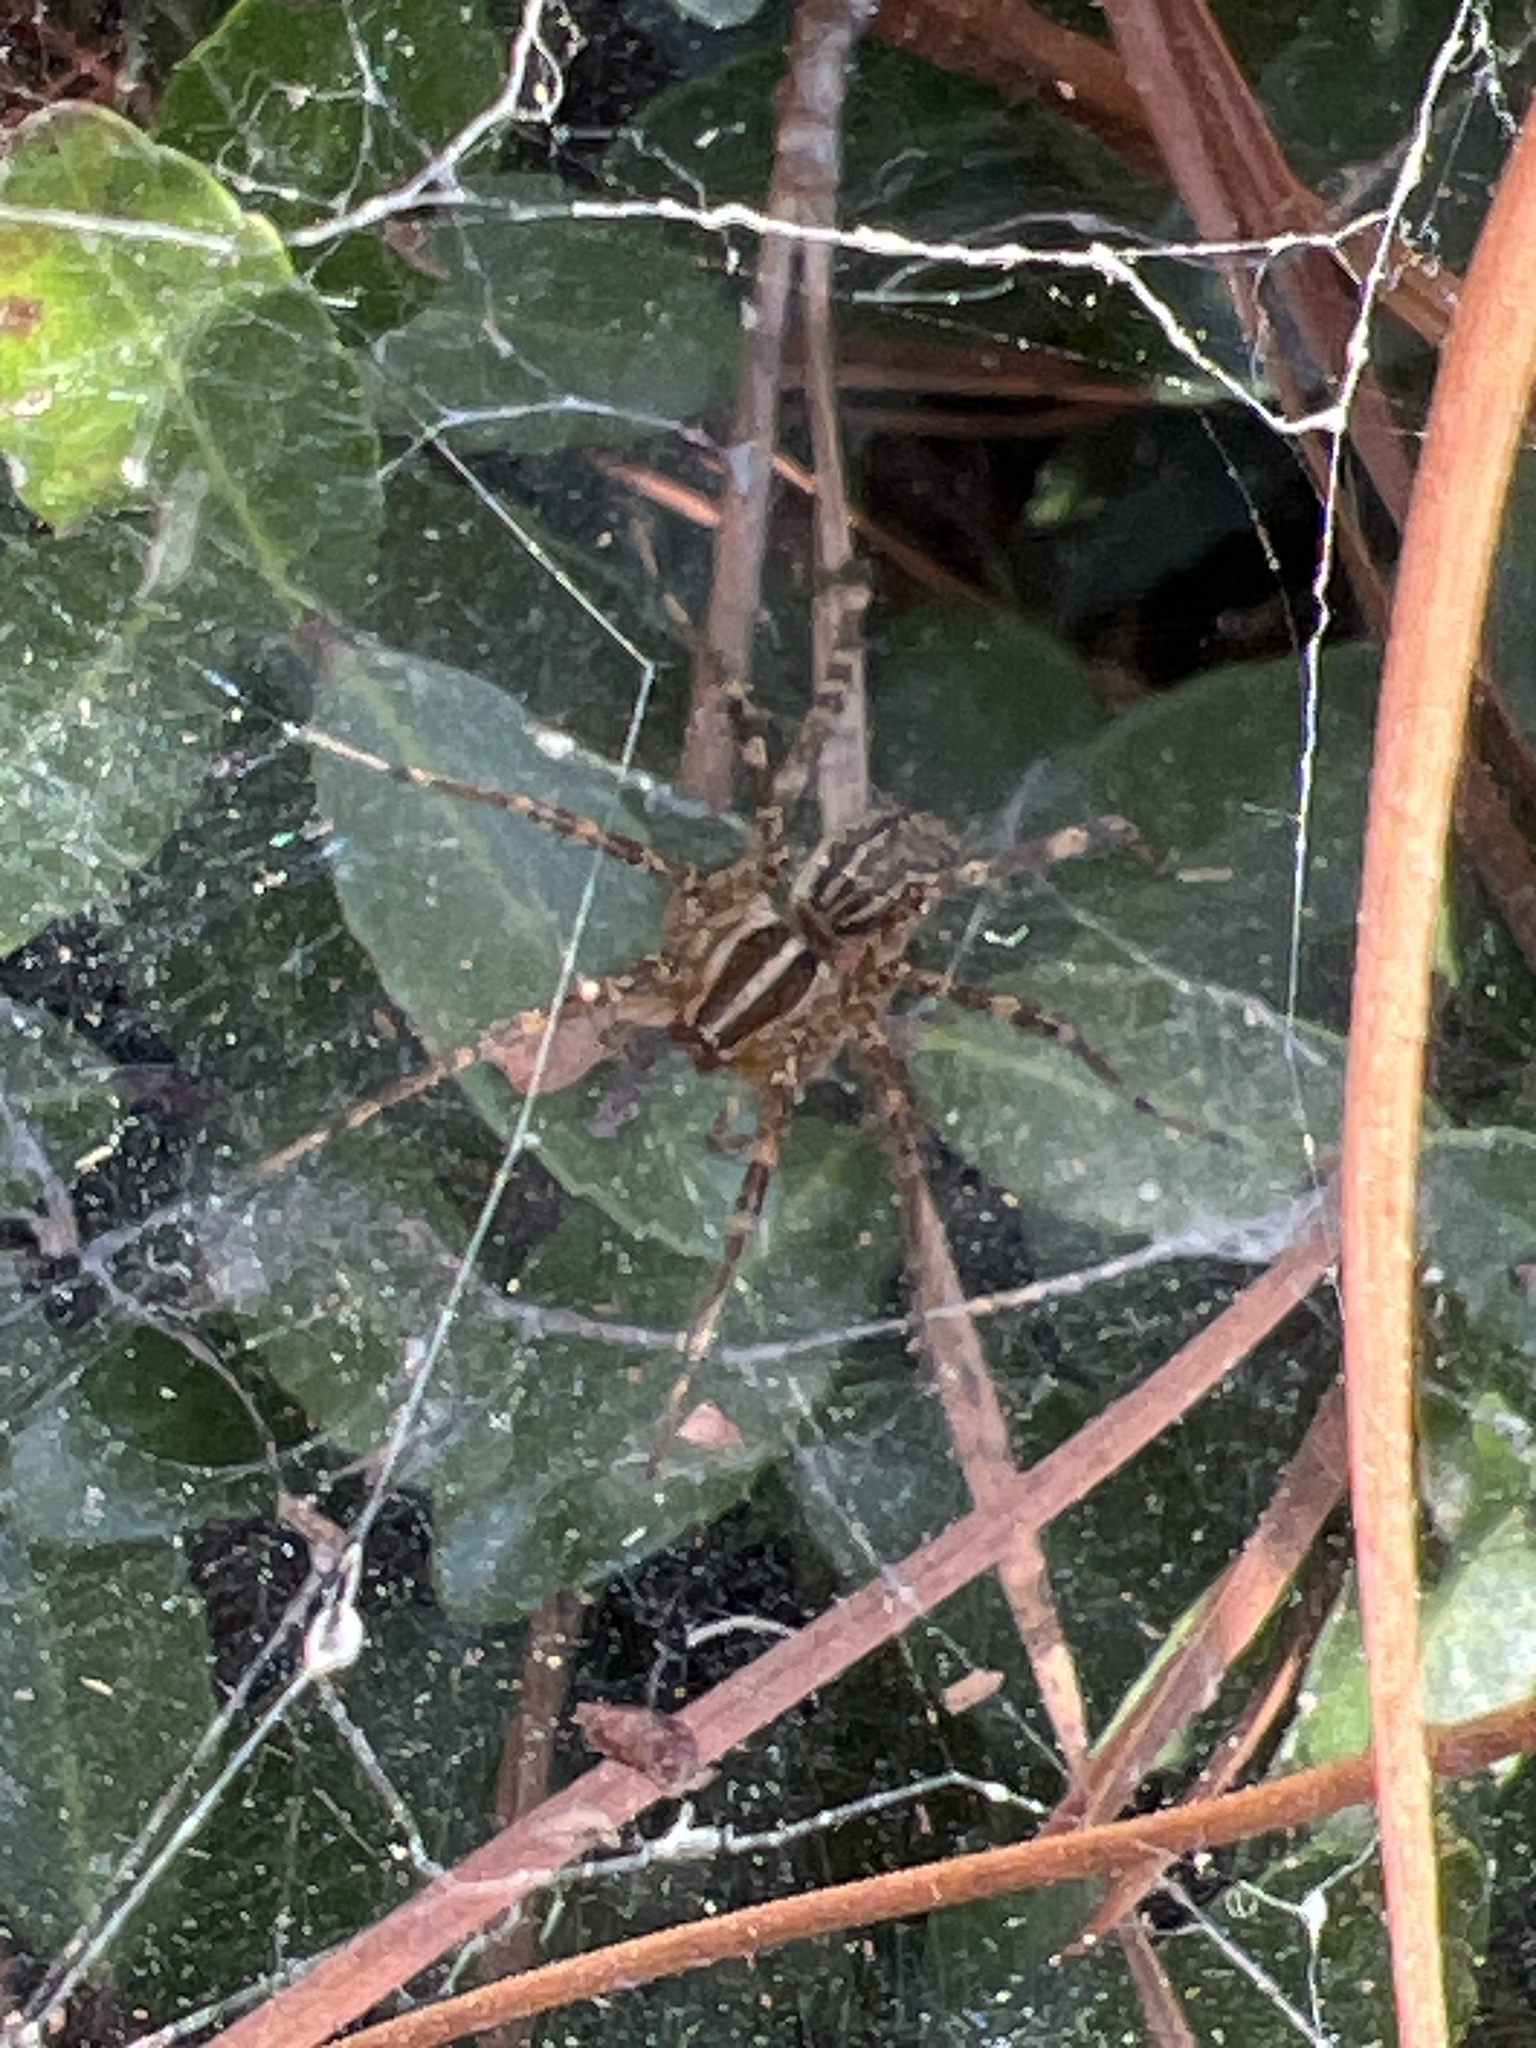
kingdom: Animalia
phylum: Arthropoda
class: Arachnida
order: Araneae
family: Agelenidae
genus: Agelenopsis
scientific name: Agelenopsis
